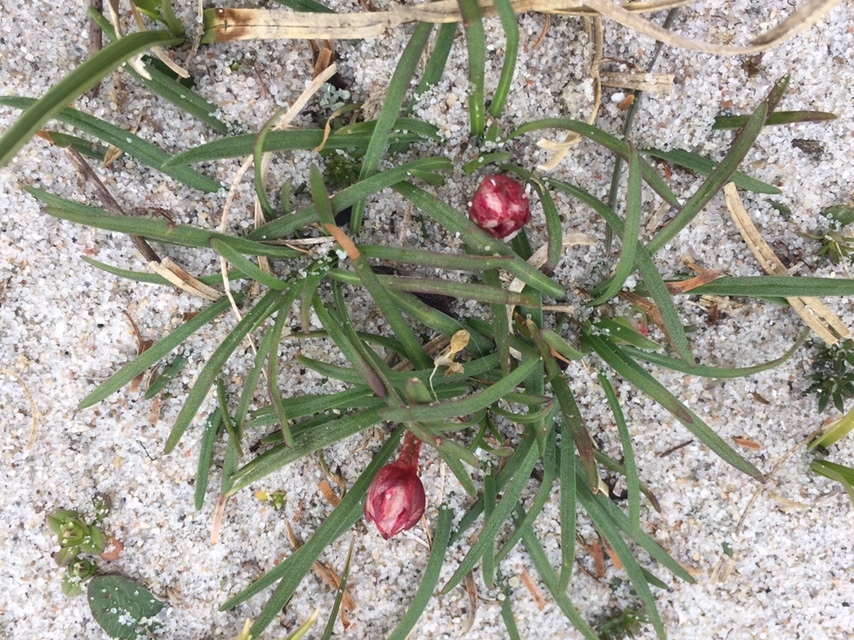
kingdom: Plantae
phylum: Tracheophyta
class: Magnoliopsida
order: Caryophyllales
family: Plumbaginaceae
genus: Armeria
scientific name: Armeria maritima
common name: Thrift
